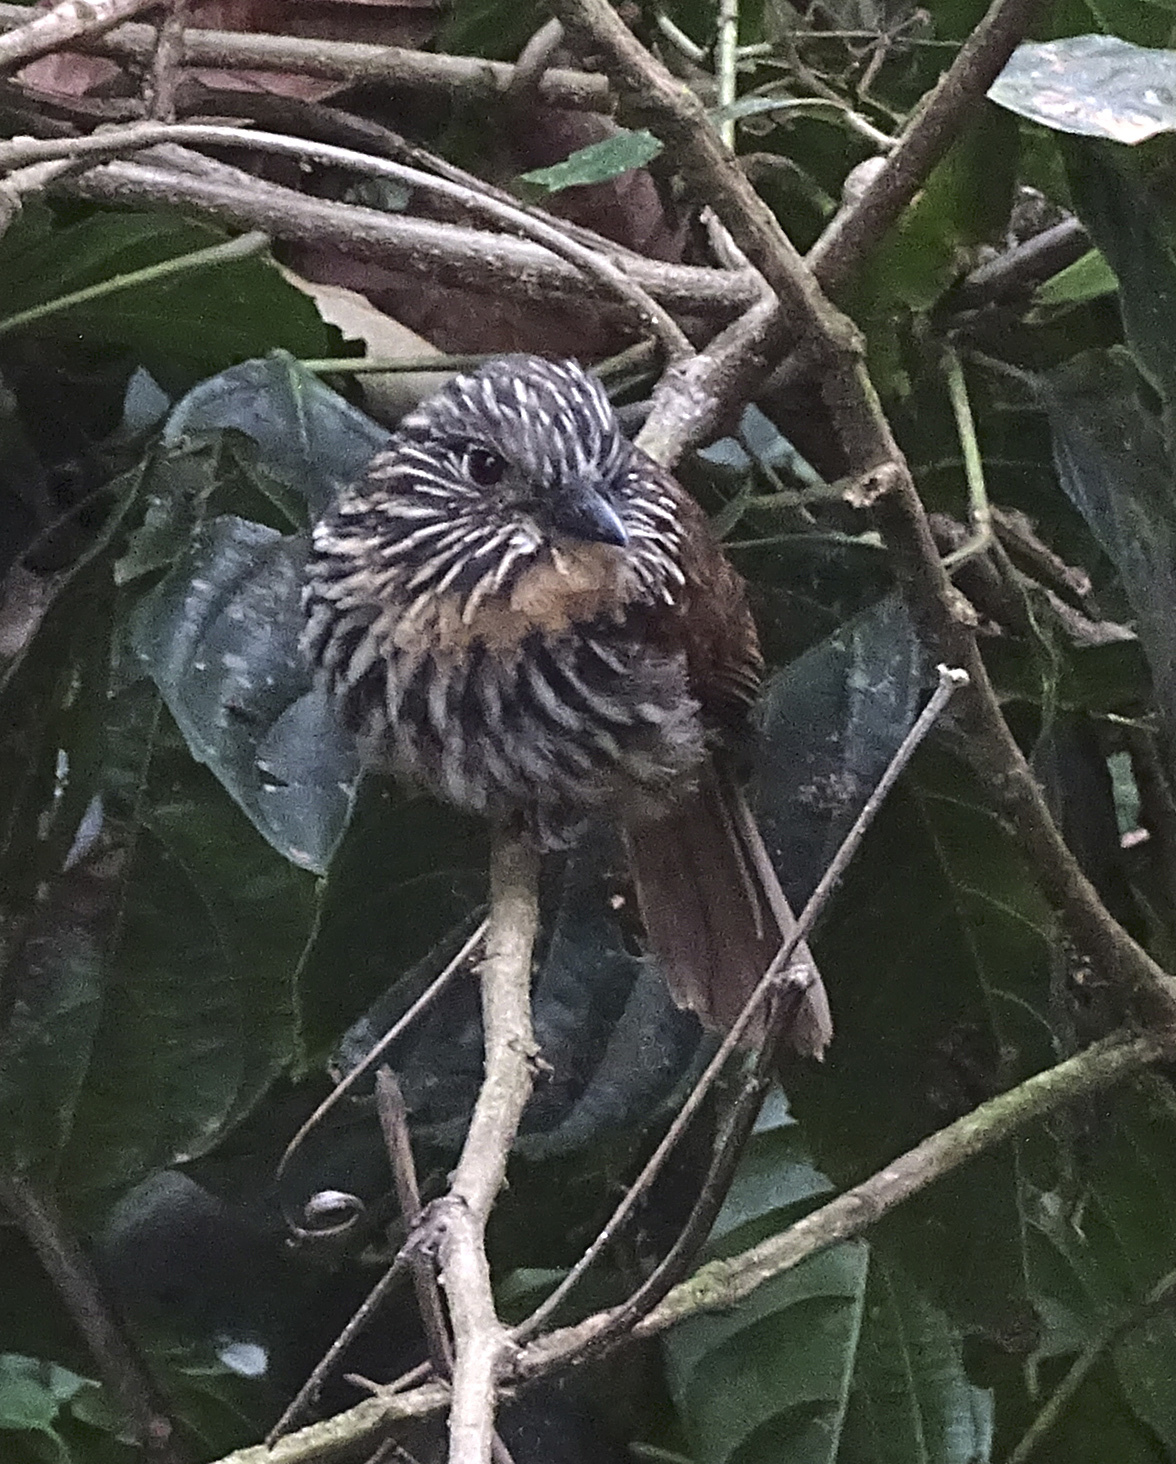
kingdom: Animalia
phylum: Chordata
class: Aves
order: Piciformes
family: Bucconidae
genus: Malacoptila
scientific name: Malacoptila fulvogularis
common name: Black-streaked puffbird
